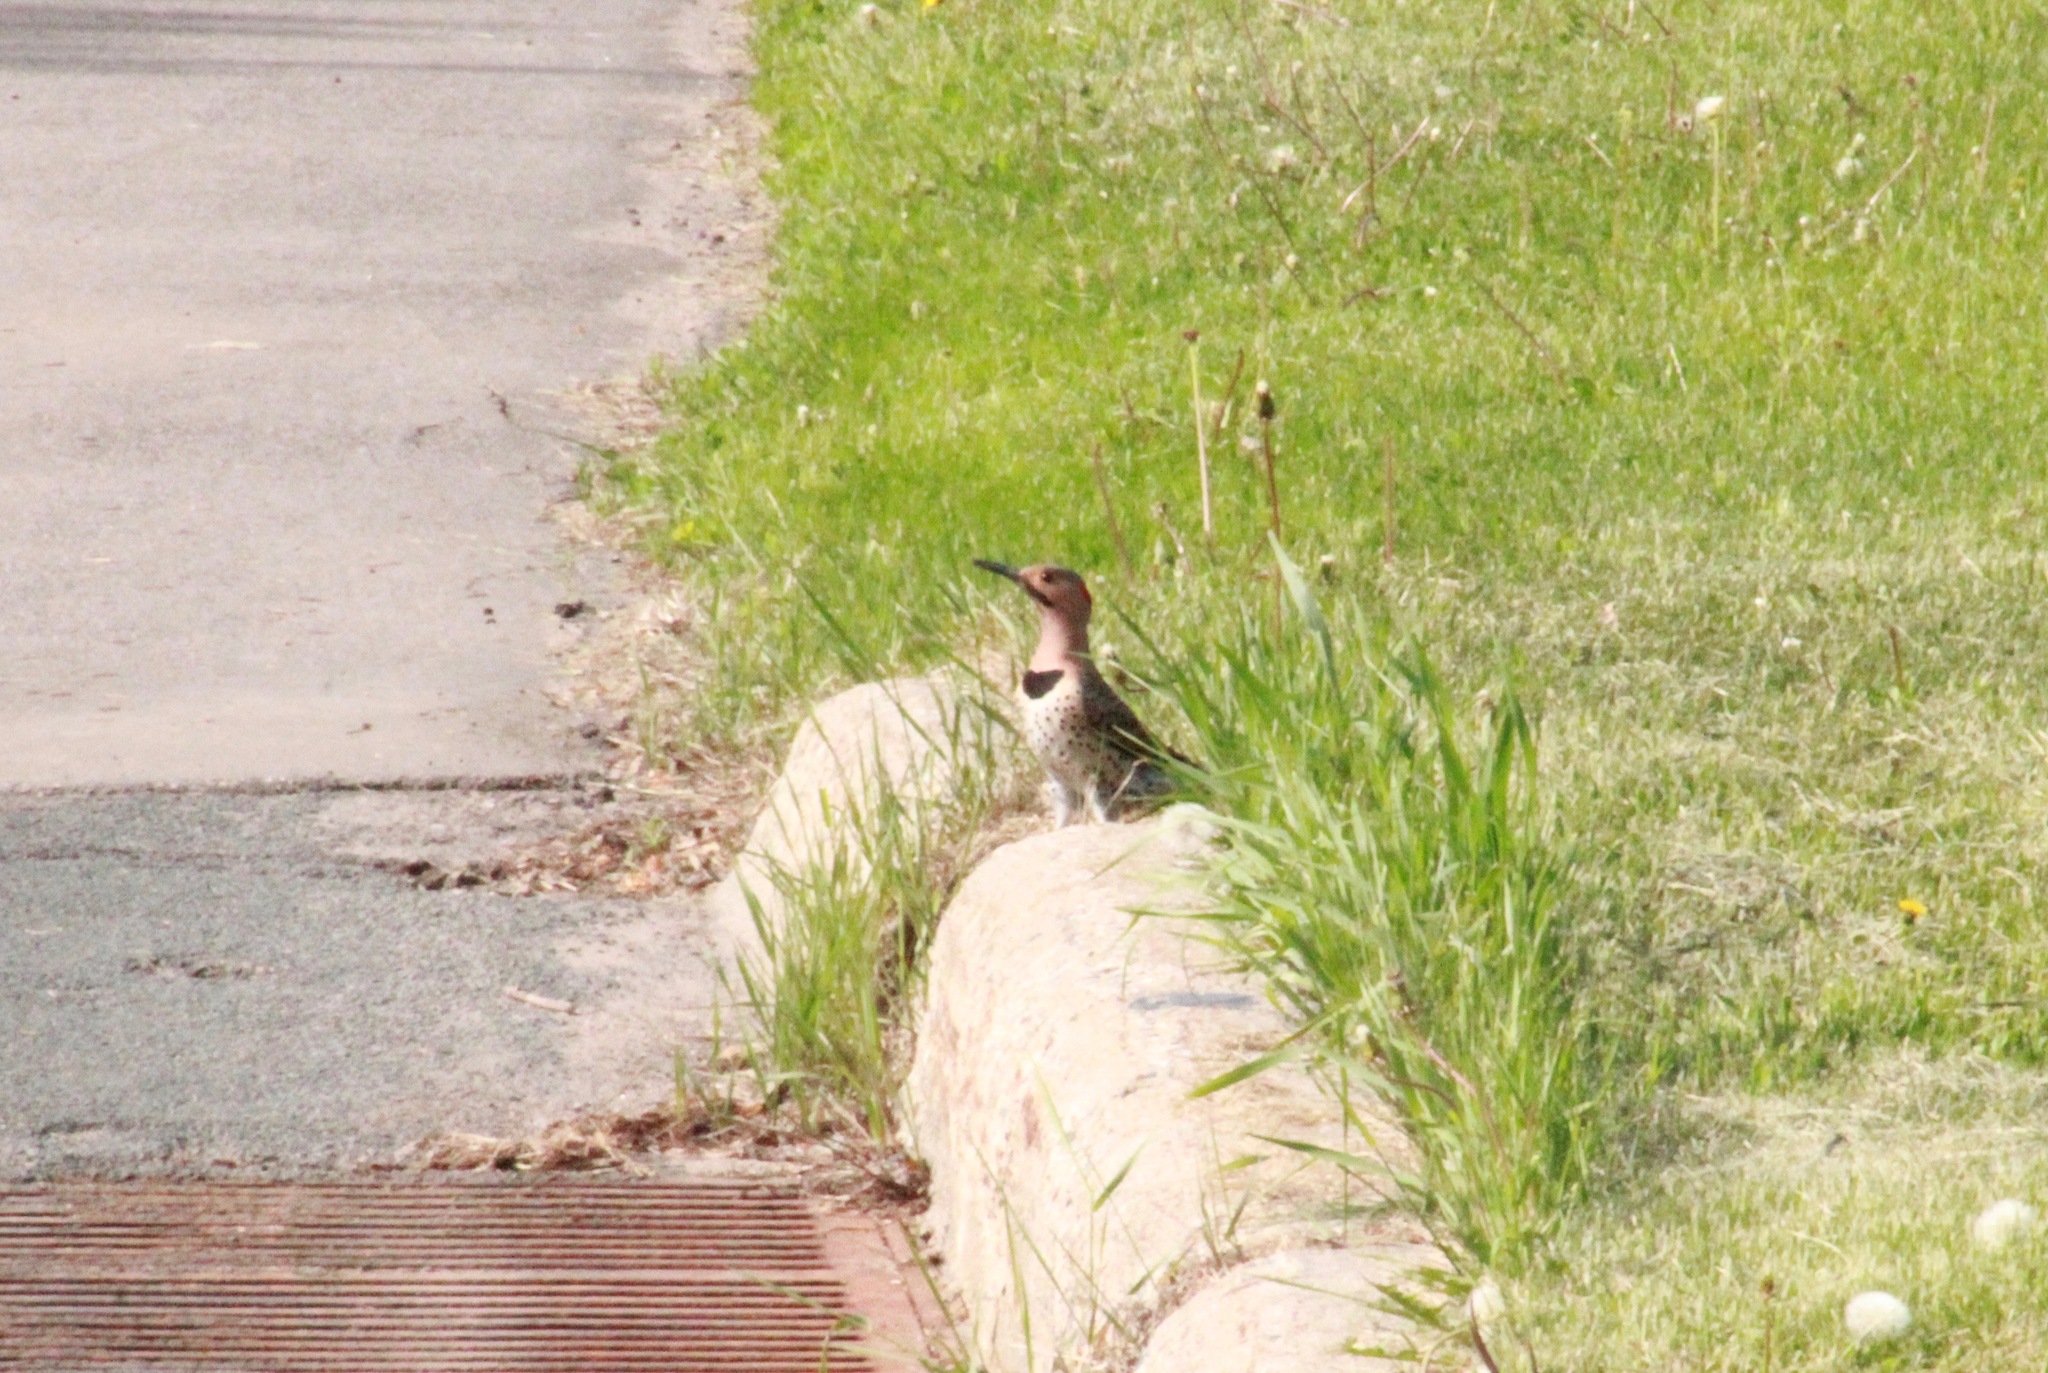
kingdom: Animalia
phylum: Chordata
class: Aves
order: Piciformes
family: Picidae
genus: Colaptes
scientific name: Colaptes auratus
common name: Northern flicker
